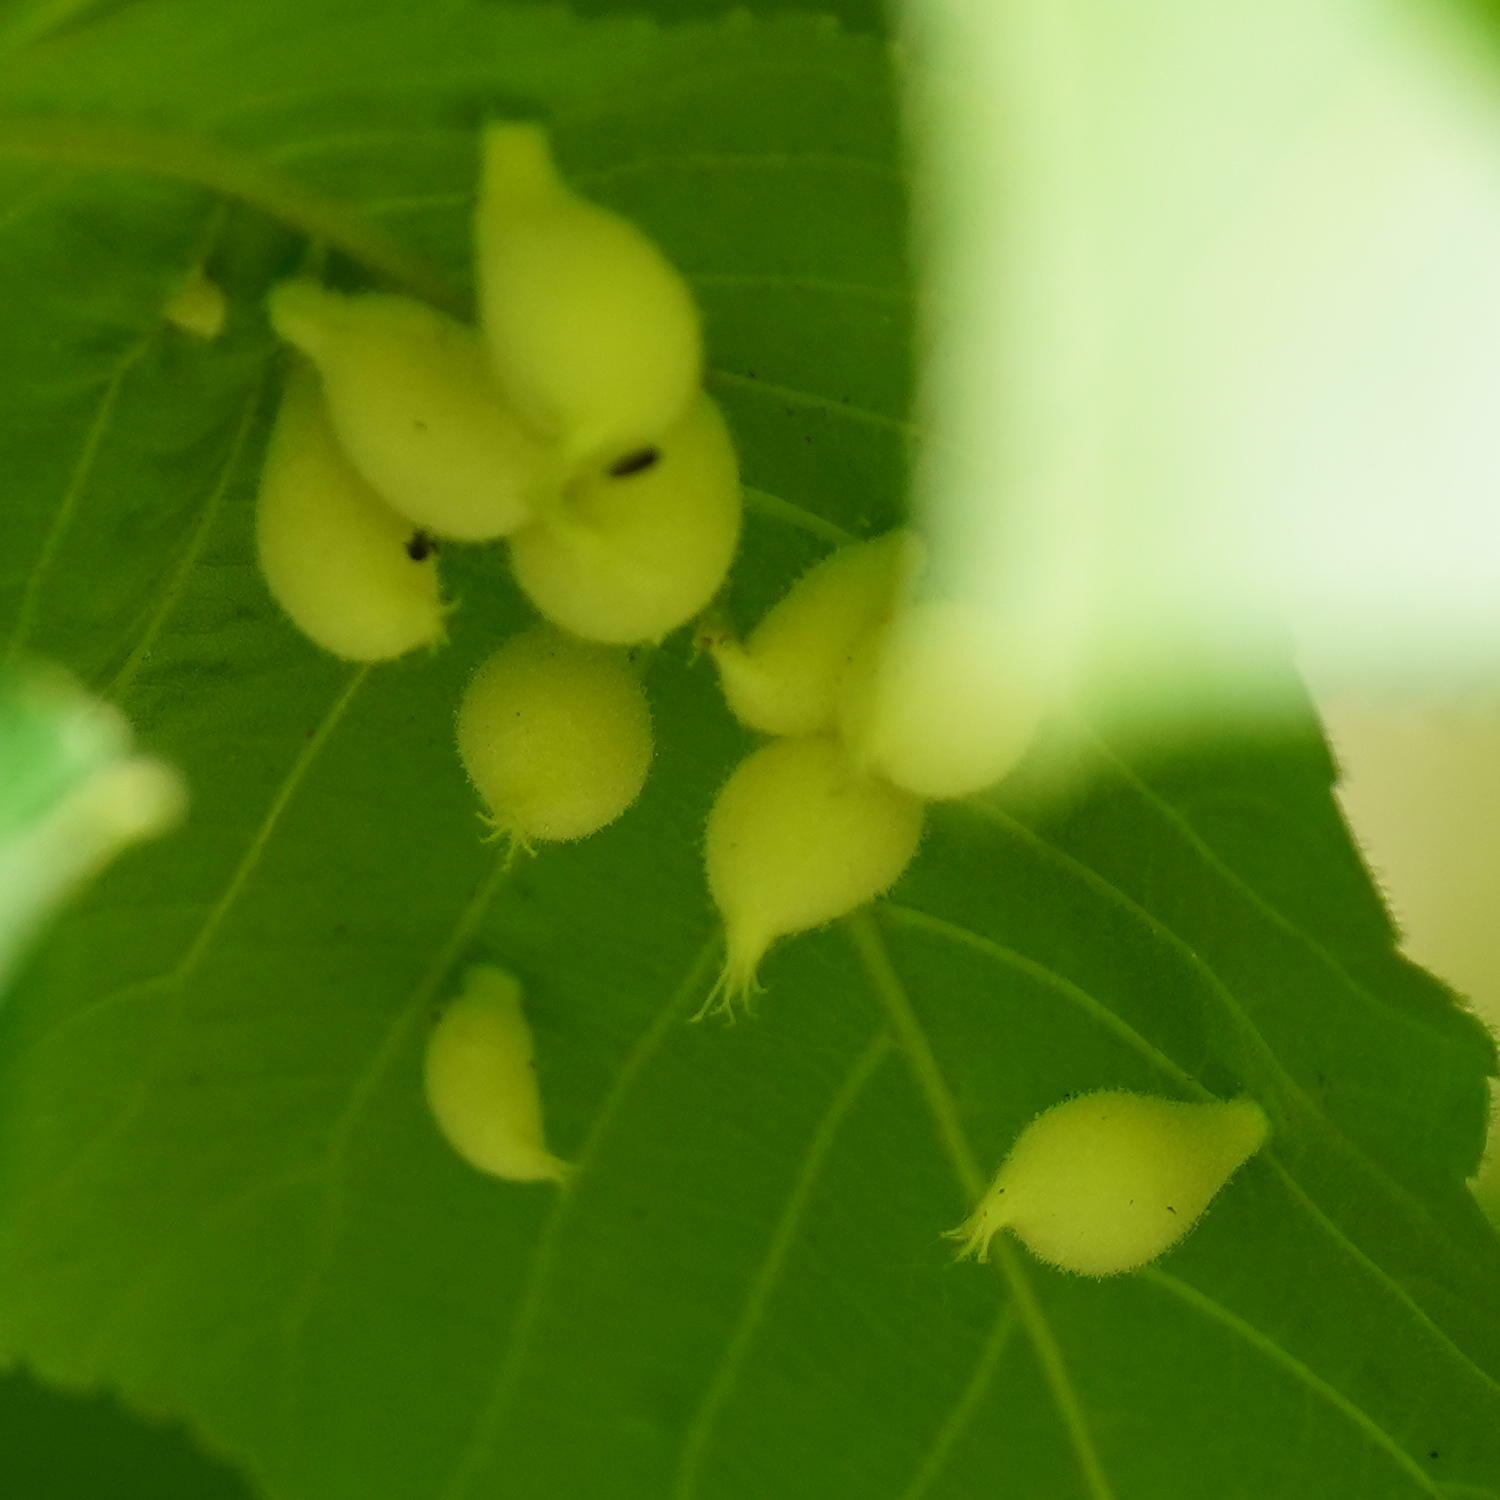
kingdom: Animalia
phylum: Arthropoda
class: Insecta
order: Hemiptera
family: Phylloxeridae
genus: Phylloxera
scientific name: Phylloxera caryaegummosa
